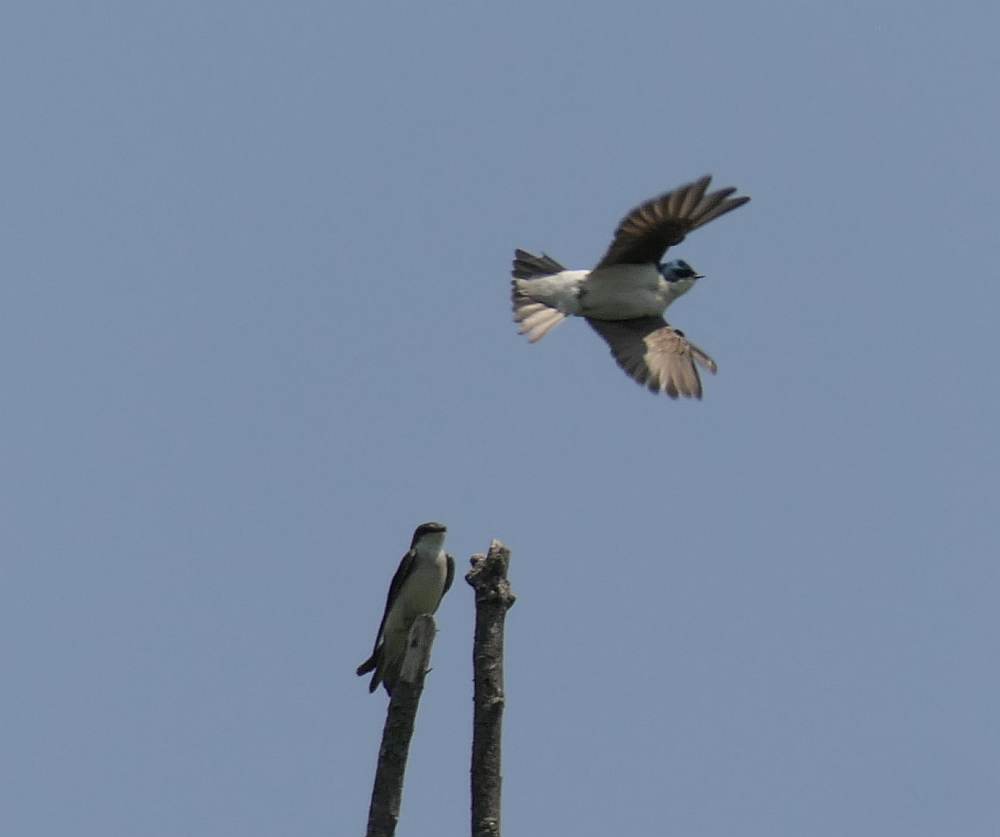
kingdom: Animalia
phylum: Chordata
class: Aves
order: Passeriformes
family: Hirundinidae
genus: Tachycineta
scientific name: Tachycineta bicolor
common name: Tree swallow
